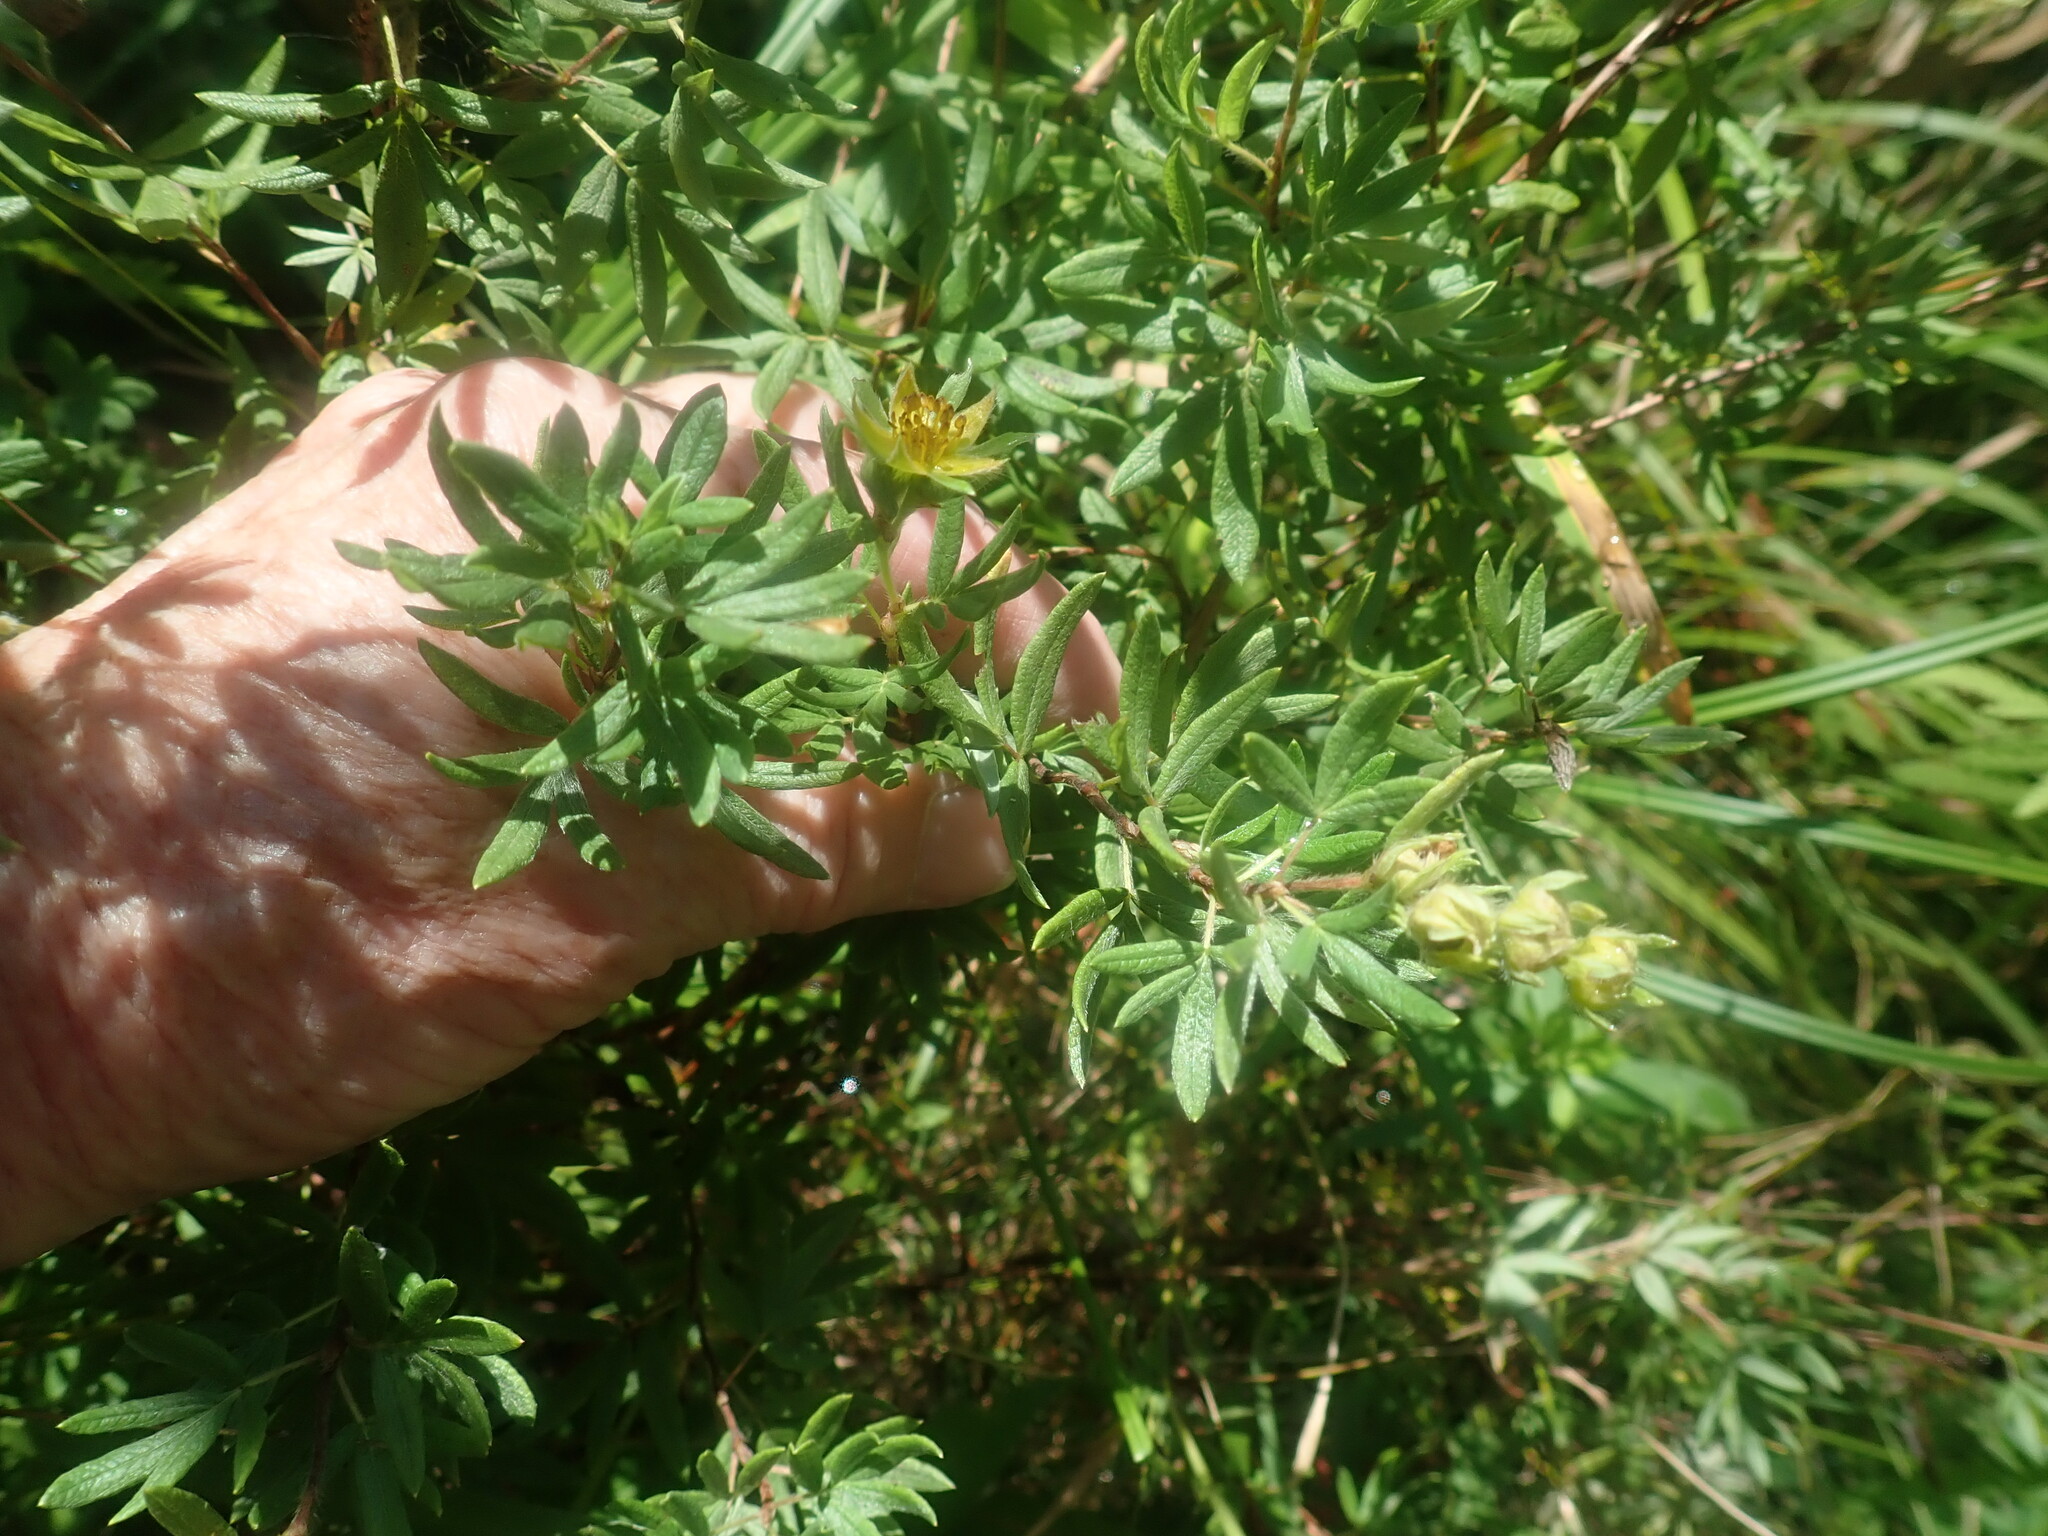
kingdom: Plantae
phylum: Tracheophyta
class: Magnoliopsida
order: Rosales
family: Rosaceae
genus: Dasiphora
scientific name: Dasiphora fruticosa
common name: Shrubby cinquefoil
